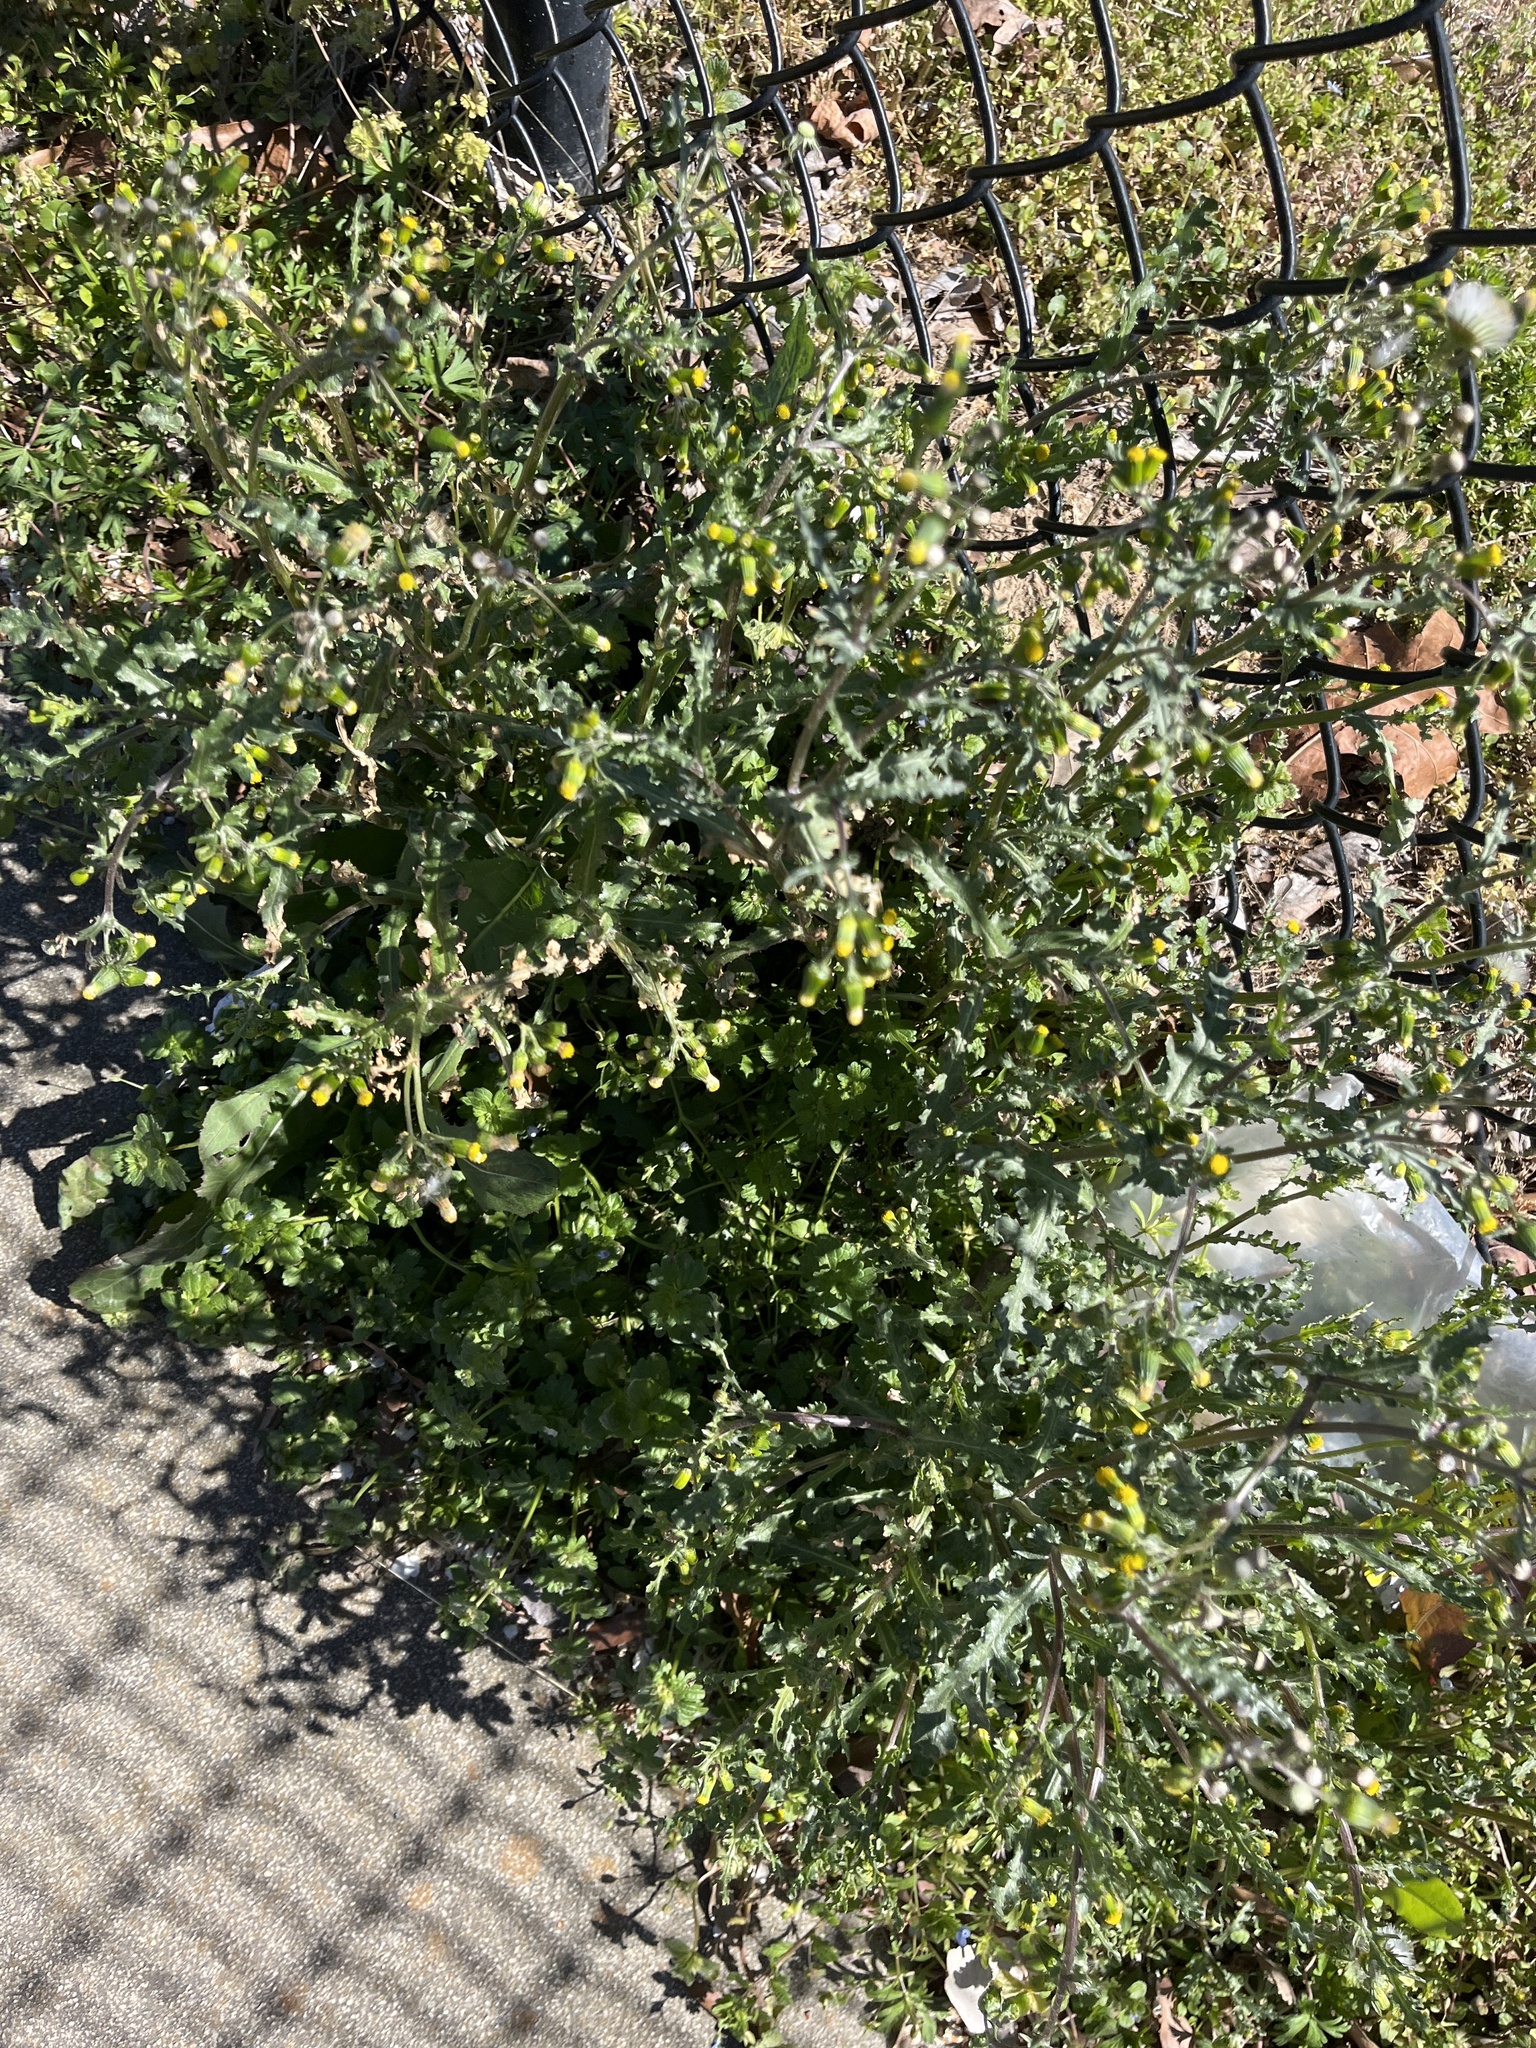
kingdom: Plantae
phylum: Tracheophyta
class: Magnoliopsida
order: Asterales
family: Asteraceae
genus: Senecio
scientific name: Senecio vulgaris
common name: Old-man-in-the-spring
